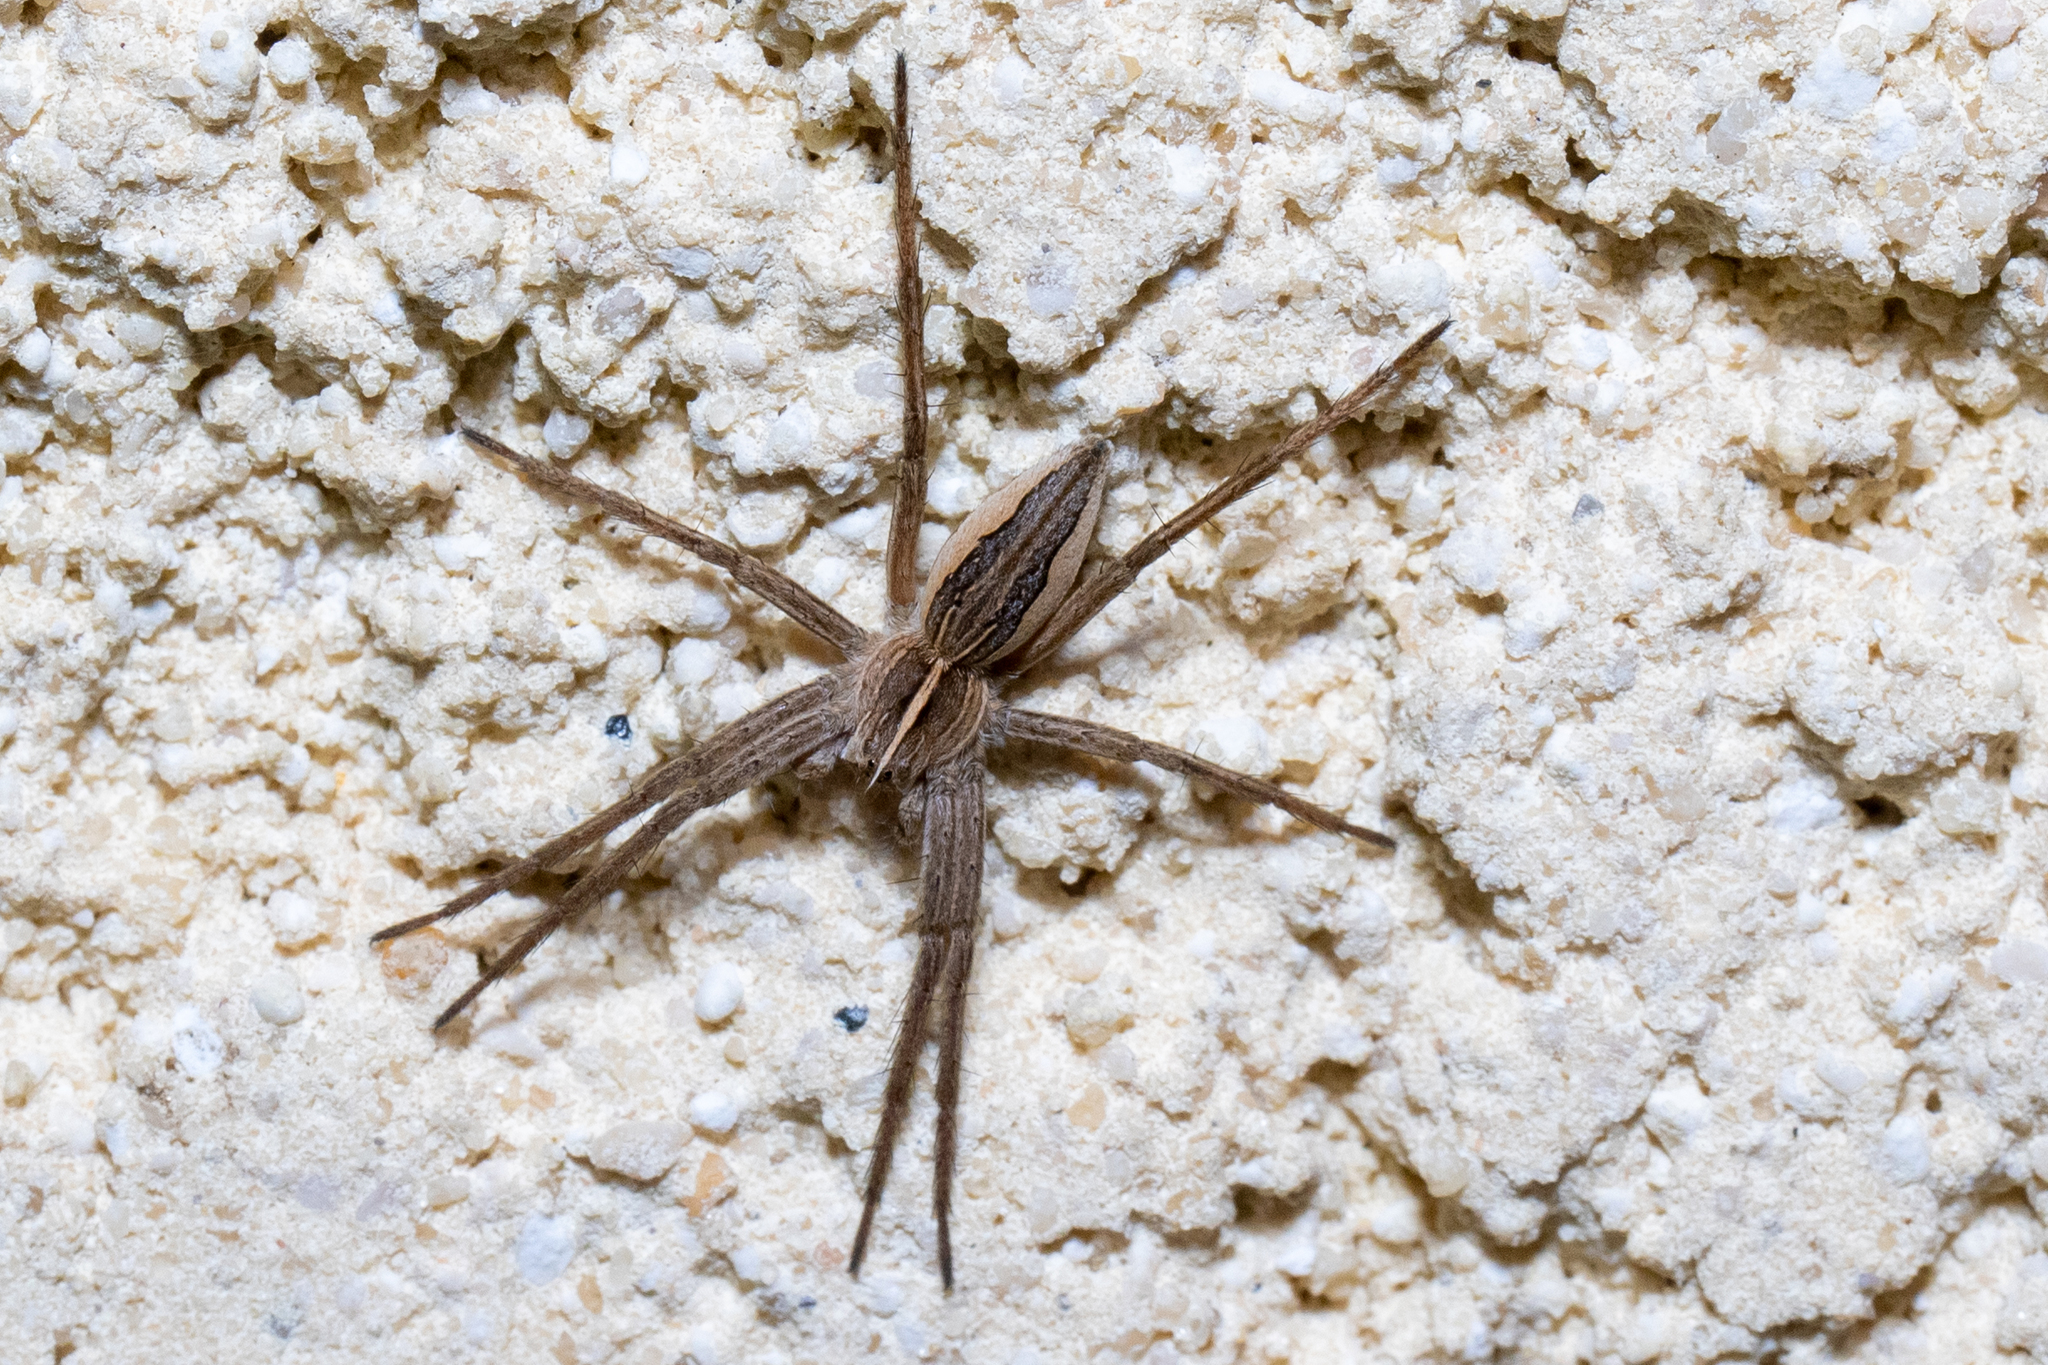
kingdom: Animalia
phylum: Arthropoda
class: Arachnida
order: Araneae
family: Pisauridae
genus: Pisaura
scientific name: Pisaura mirabilis
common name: Tent spider
